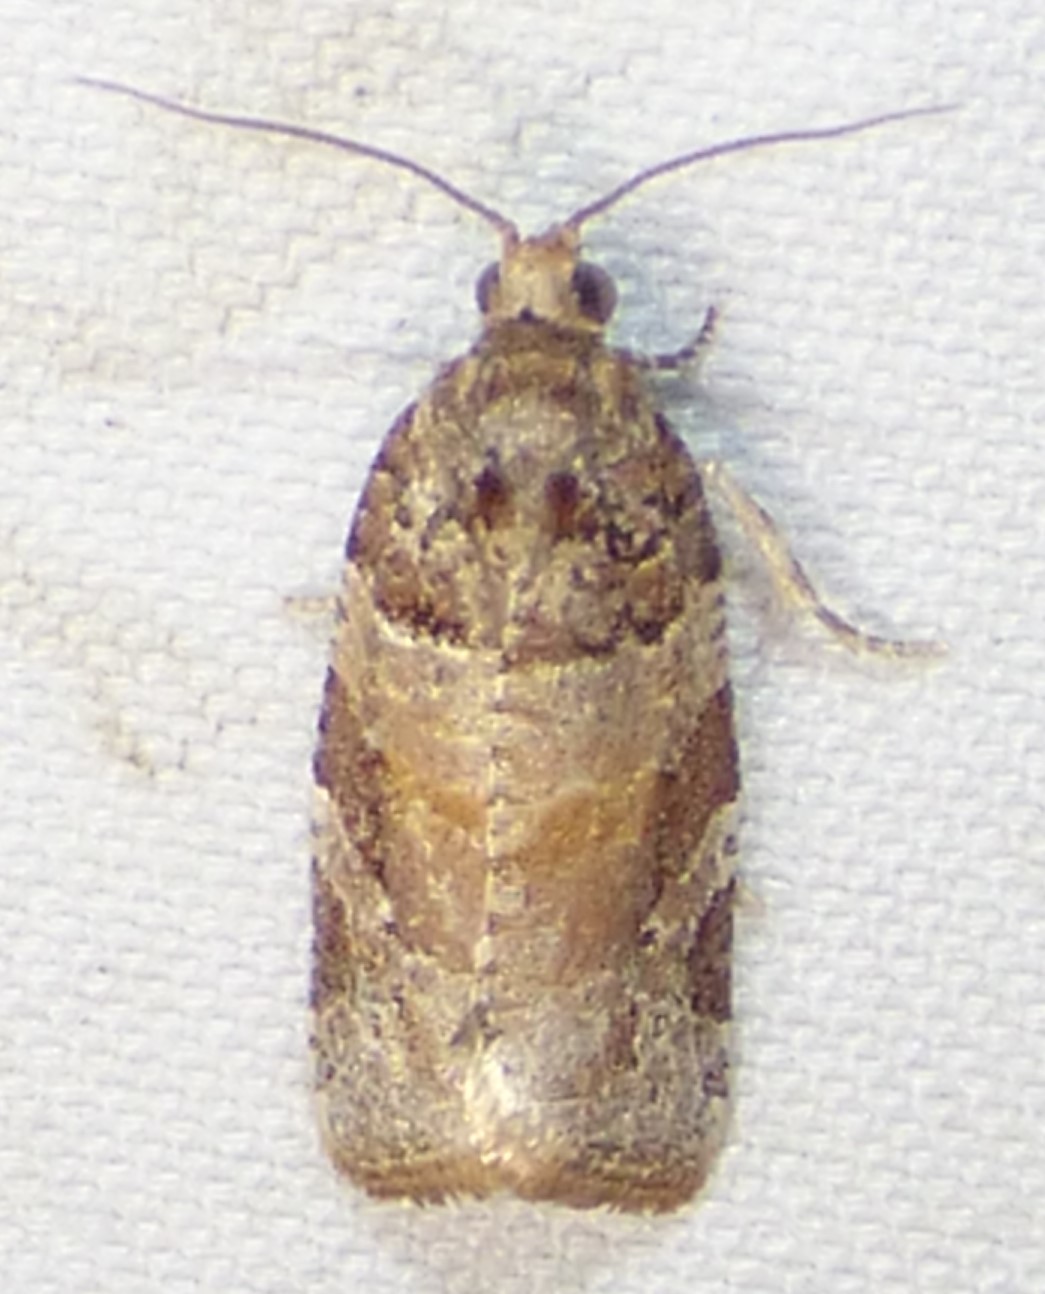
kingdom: Animalia
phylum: Arthropoda
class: Insecta
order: Lepidoptera
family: Tortricidae
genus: Argyrotaenia
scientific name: Argyrotaenia kimballi
